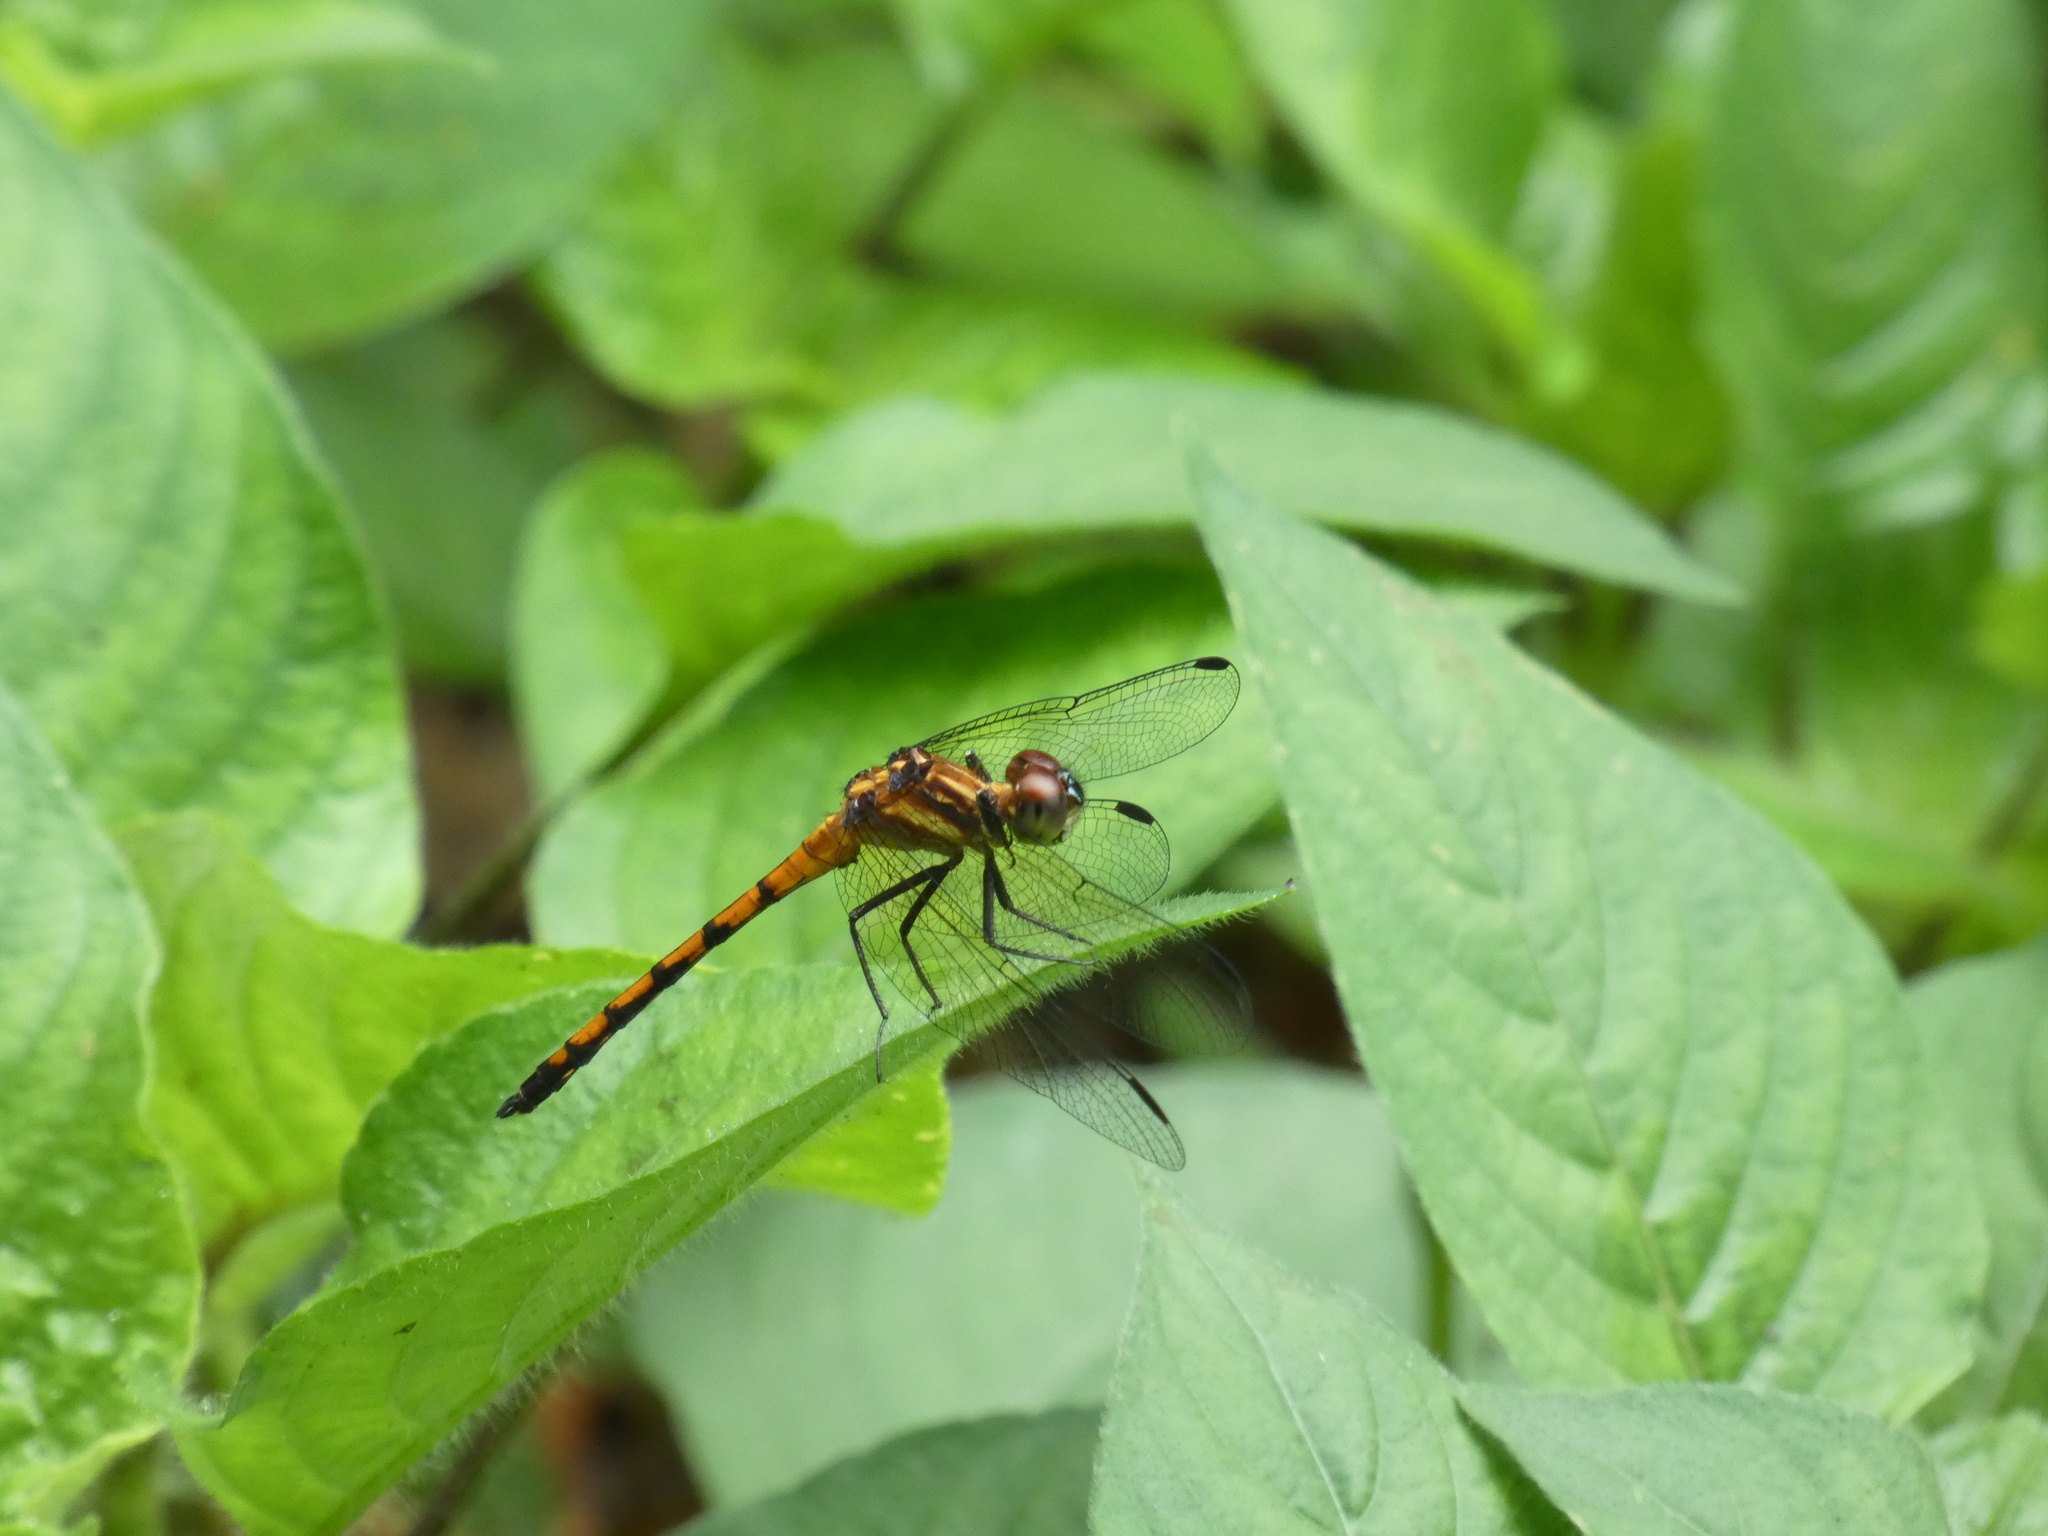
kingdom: Animalia
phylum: Arthropoda
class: Insecta
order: Odonata
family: Libellulidae
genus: Dasythemis
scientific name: Dasythemis venosa
